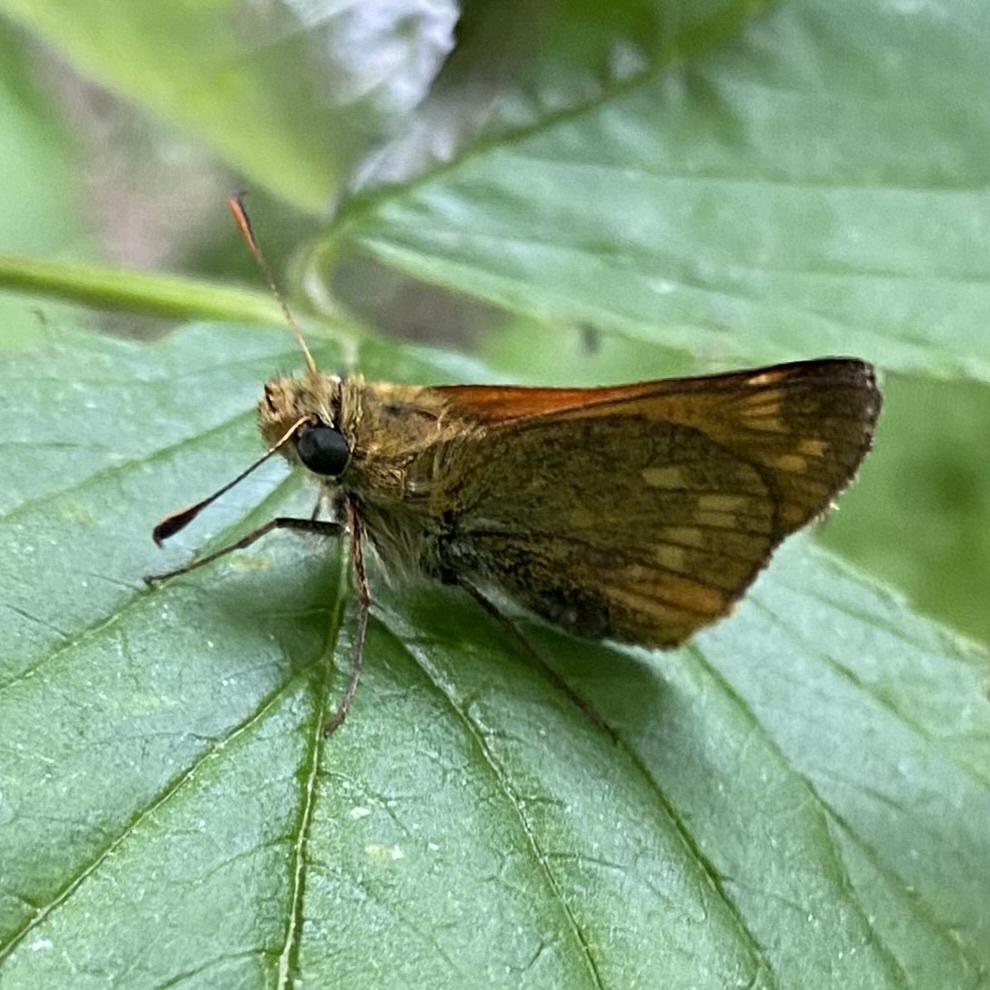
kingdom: Animalia
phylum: Arthropoda
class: Insecta
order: Lepidoptera
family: Hesperiidae
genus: Ochlodes
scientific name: Ochlodes venata
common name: Large skipper
